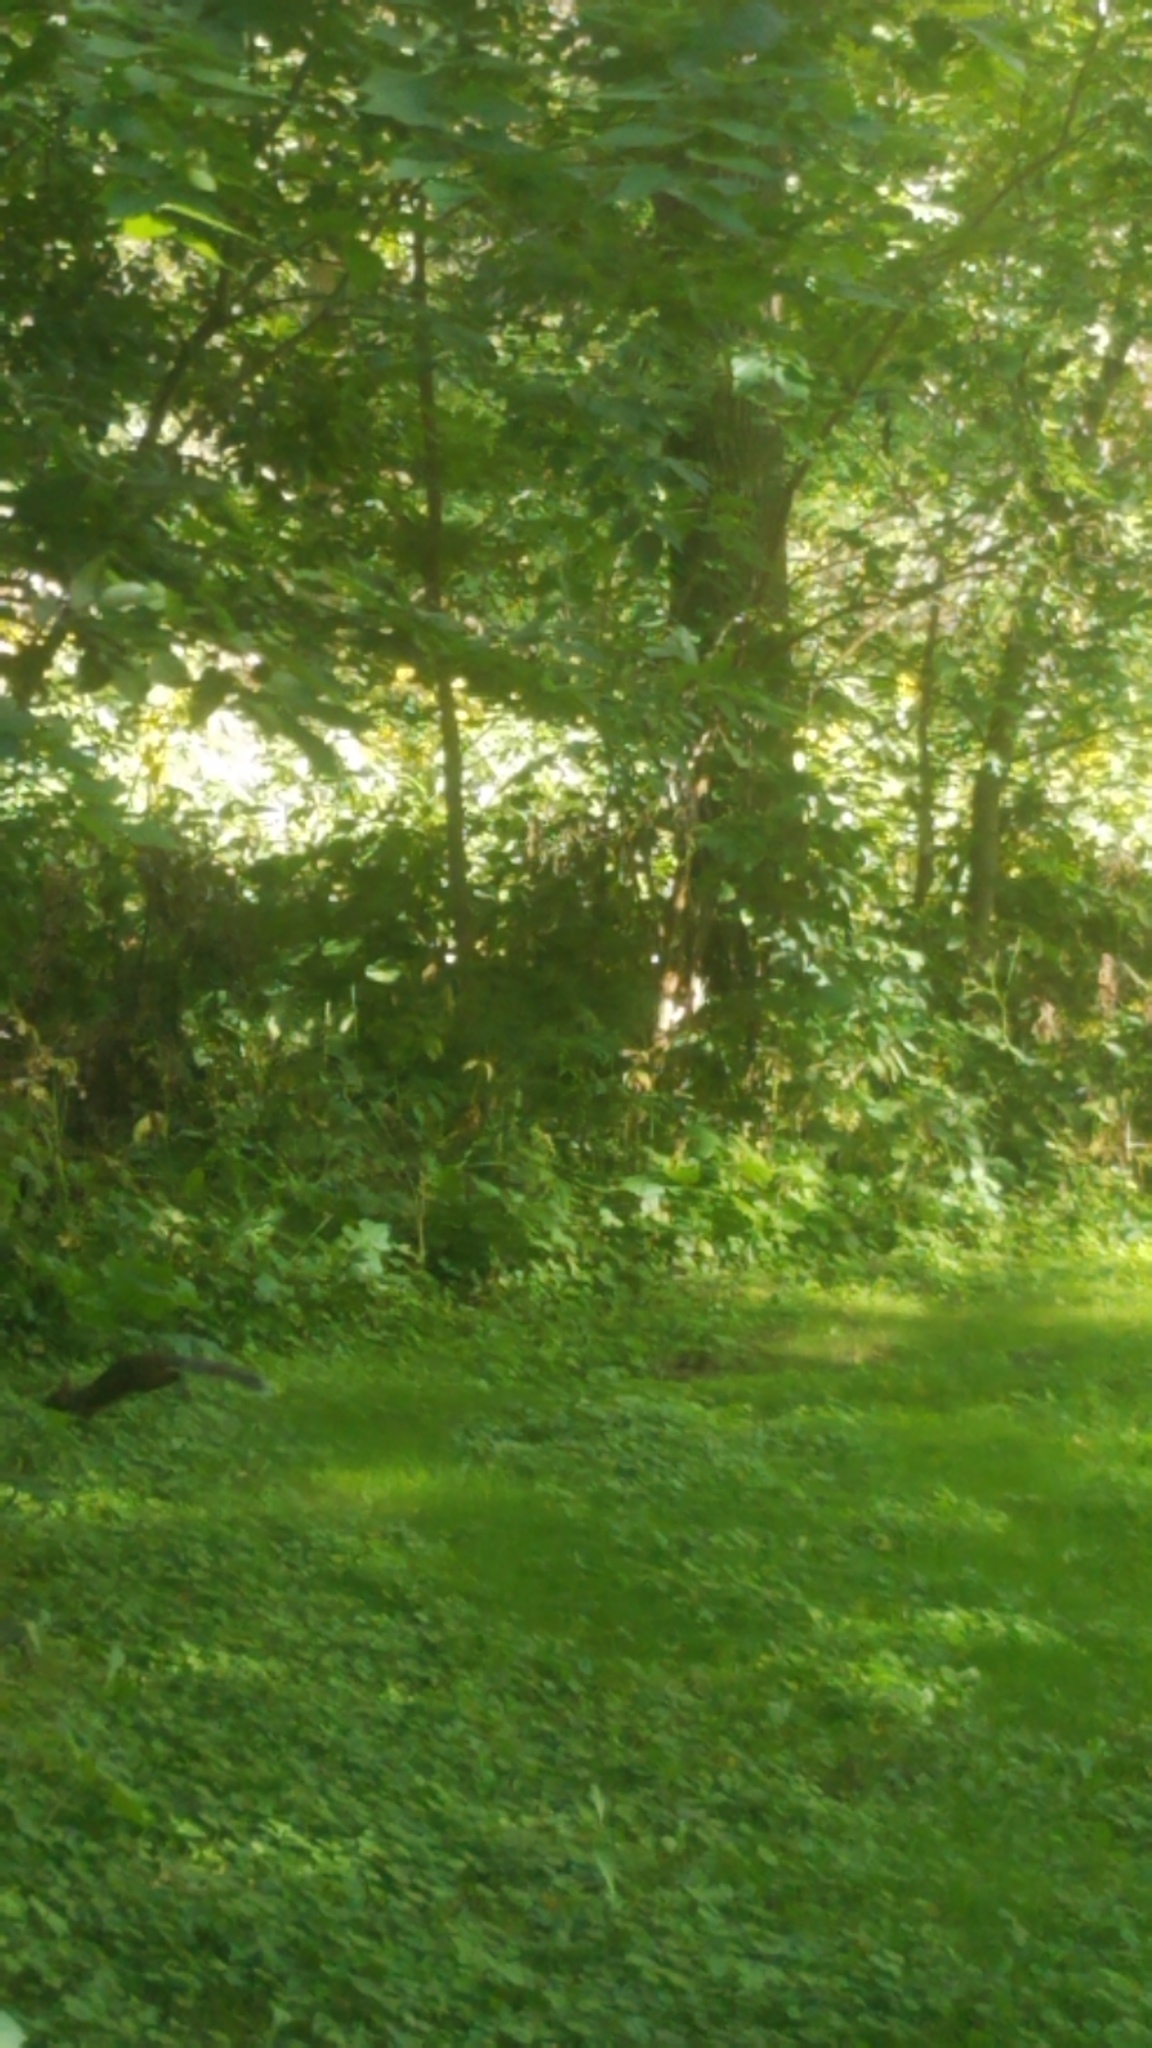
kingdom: Animalia
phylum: Chordata
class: Mammalia
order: Rodentia
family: Sciuridae
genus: Sciurus
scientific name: Sciurus carolinensis
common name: Eastern gray squirrel
